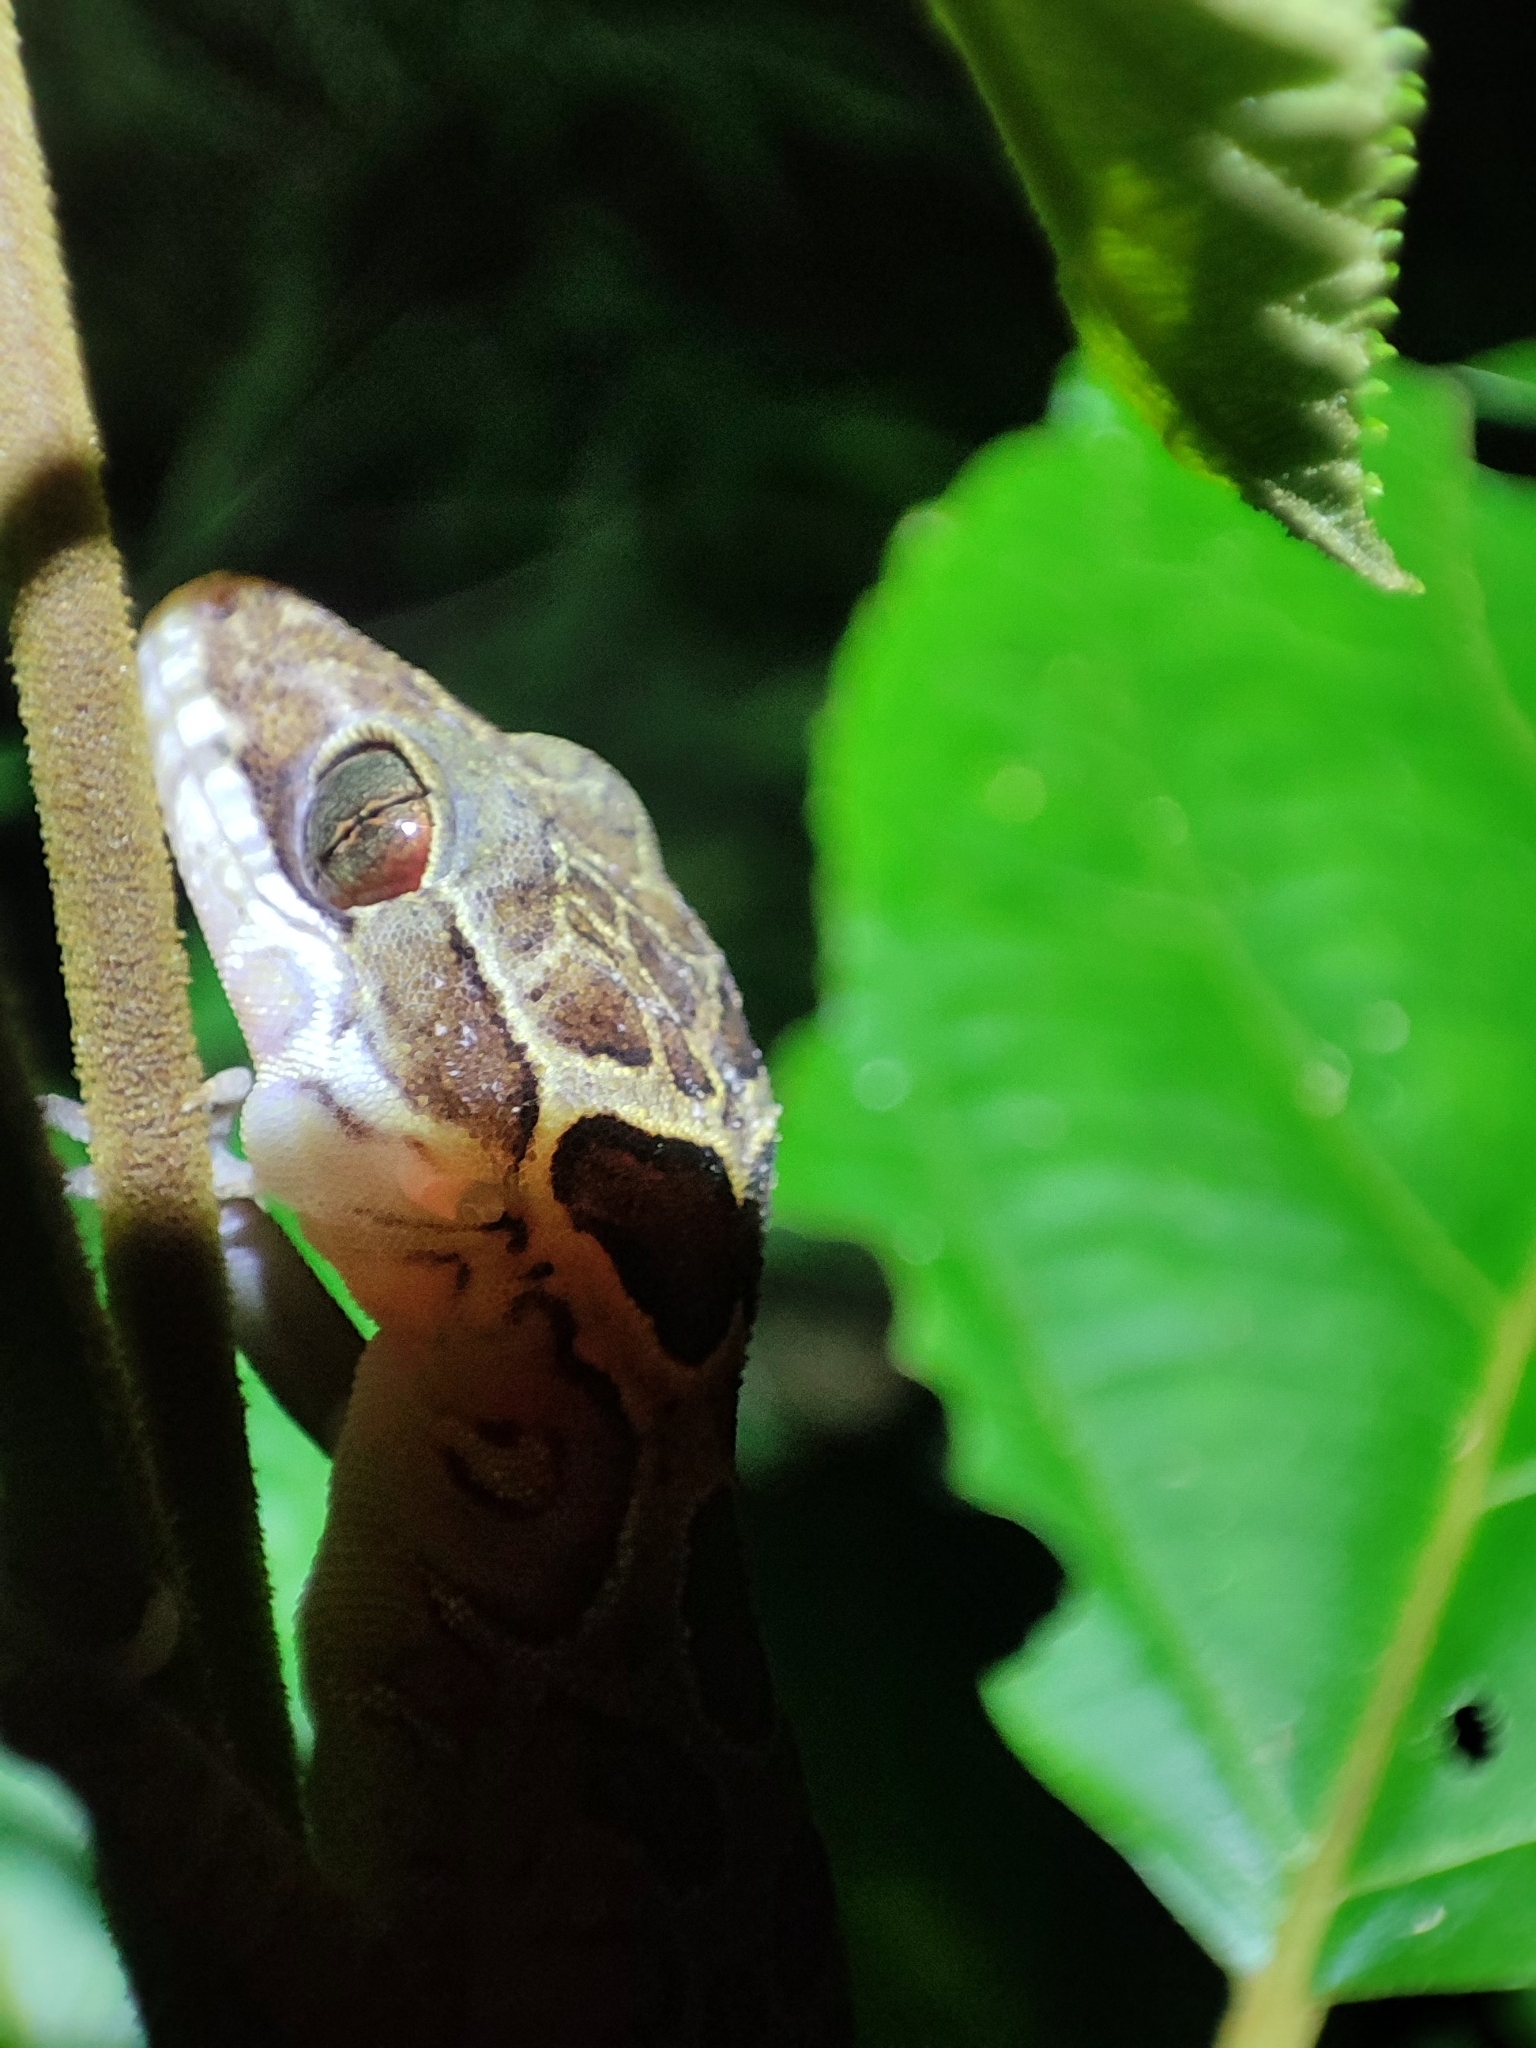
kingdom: Animalia
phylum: Chordata
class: Squamata
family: Gekkonidae
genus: Cyrtodactylus
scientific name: Cyrtodactylus zebraicus
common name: Pegu bent-toed gecko
